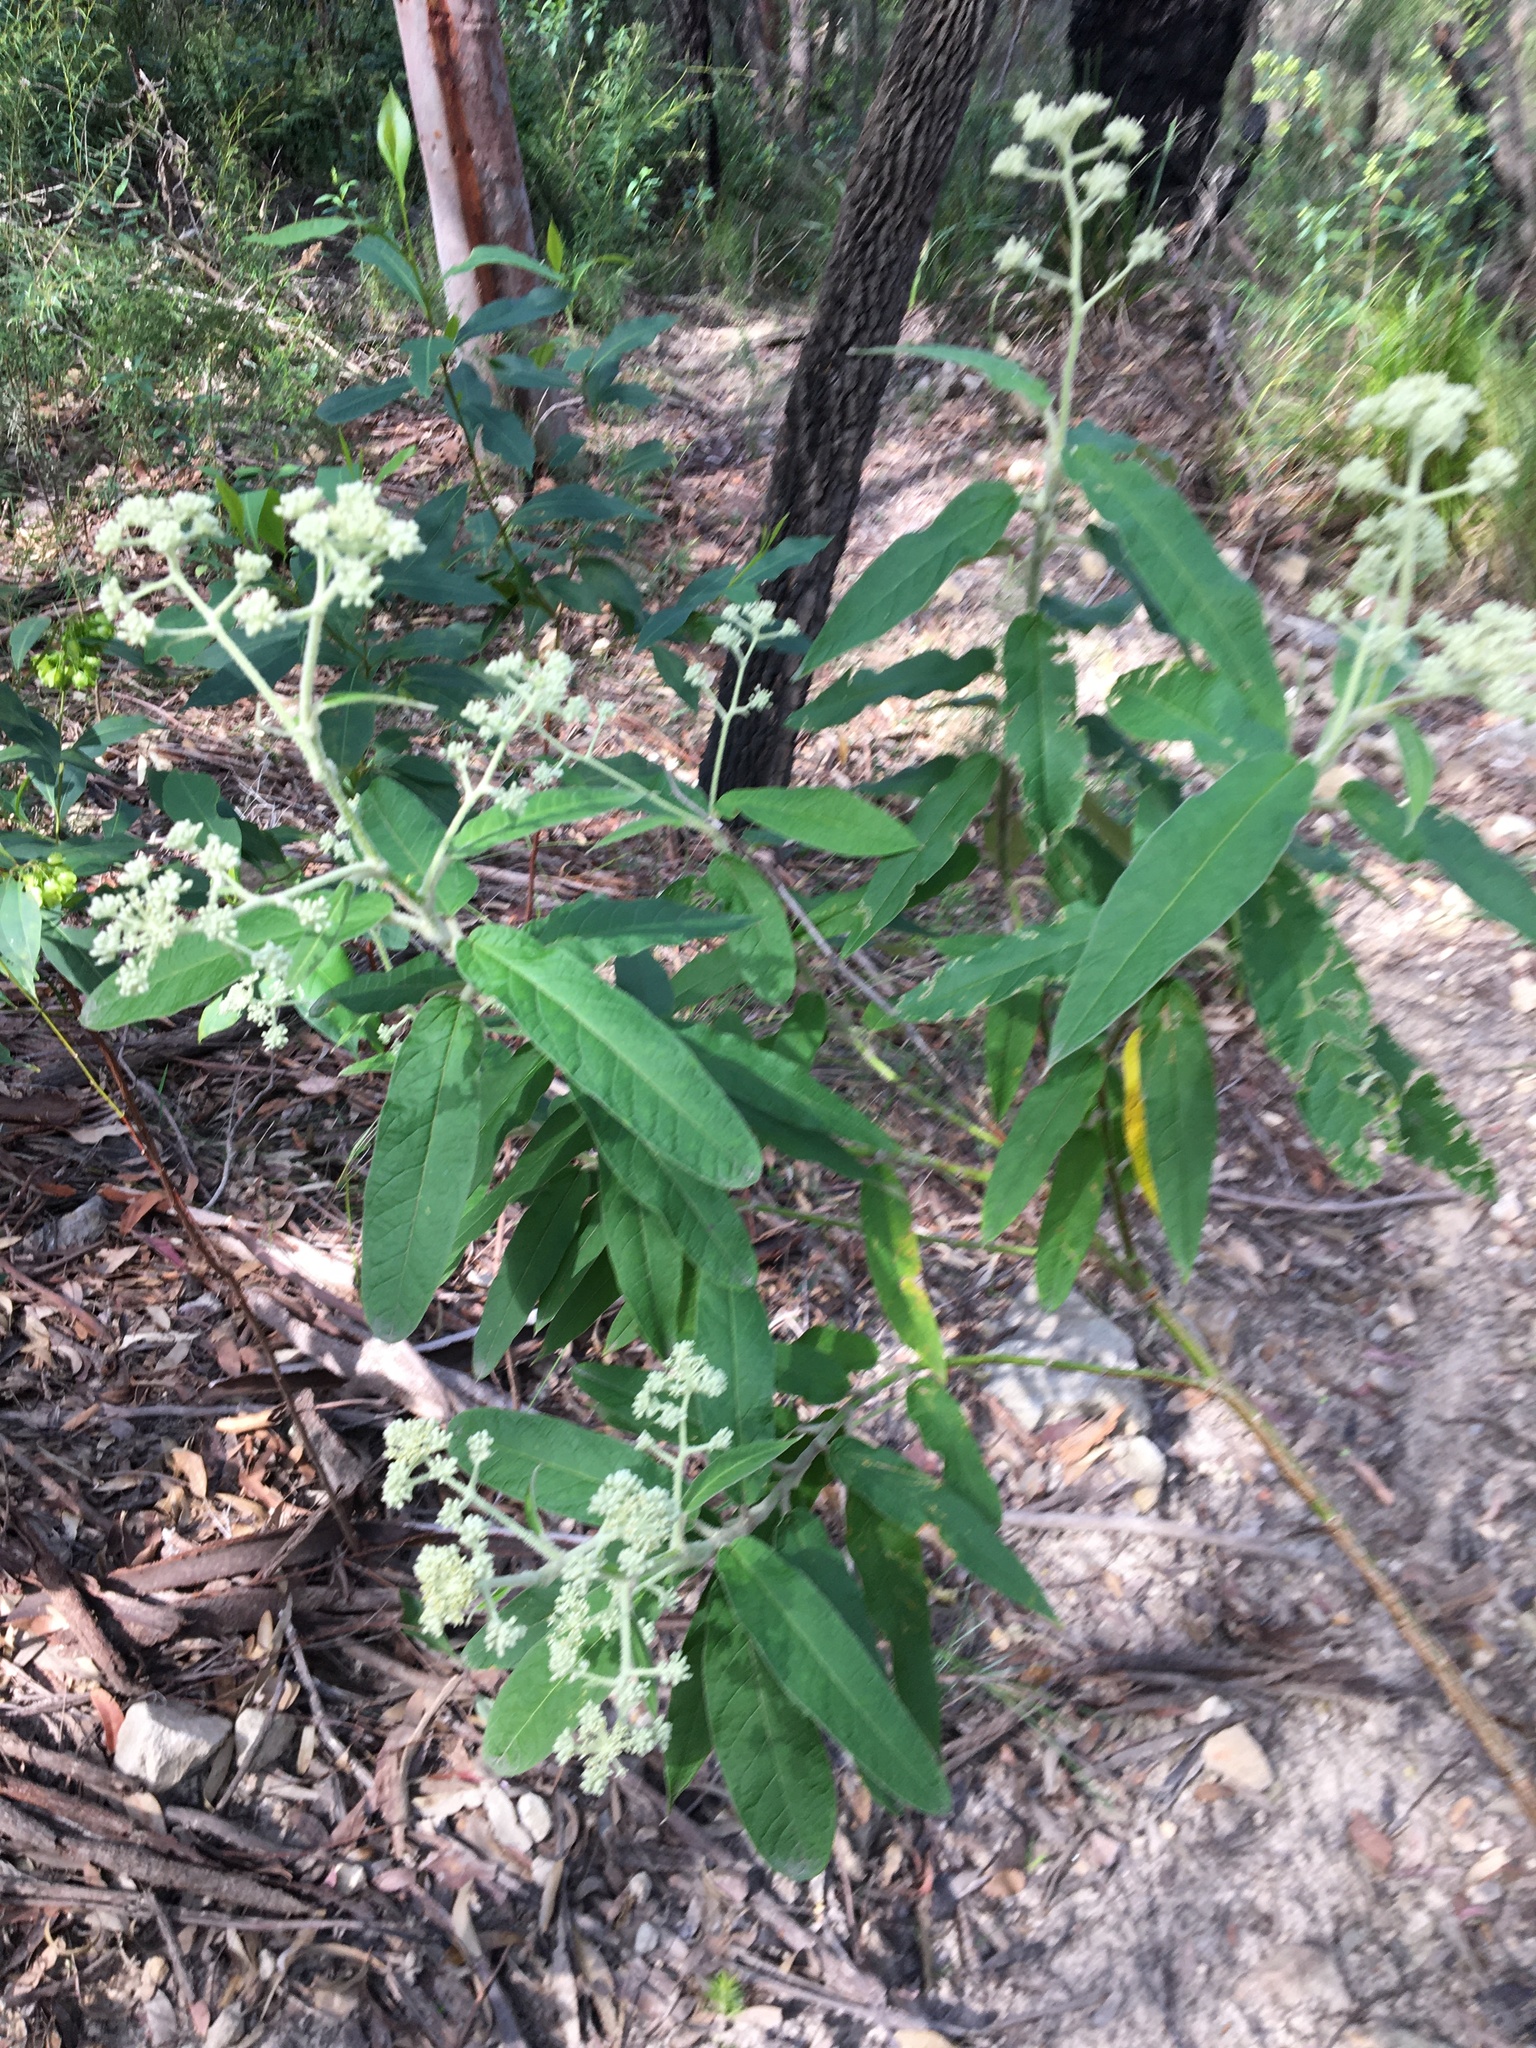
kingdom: Plantae
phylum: Tracheophyta
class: Magnoliopsida
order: Apiales
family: Araliaceae
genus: Astrotricha
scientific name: Astrotricha floccosa
